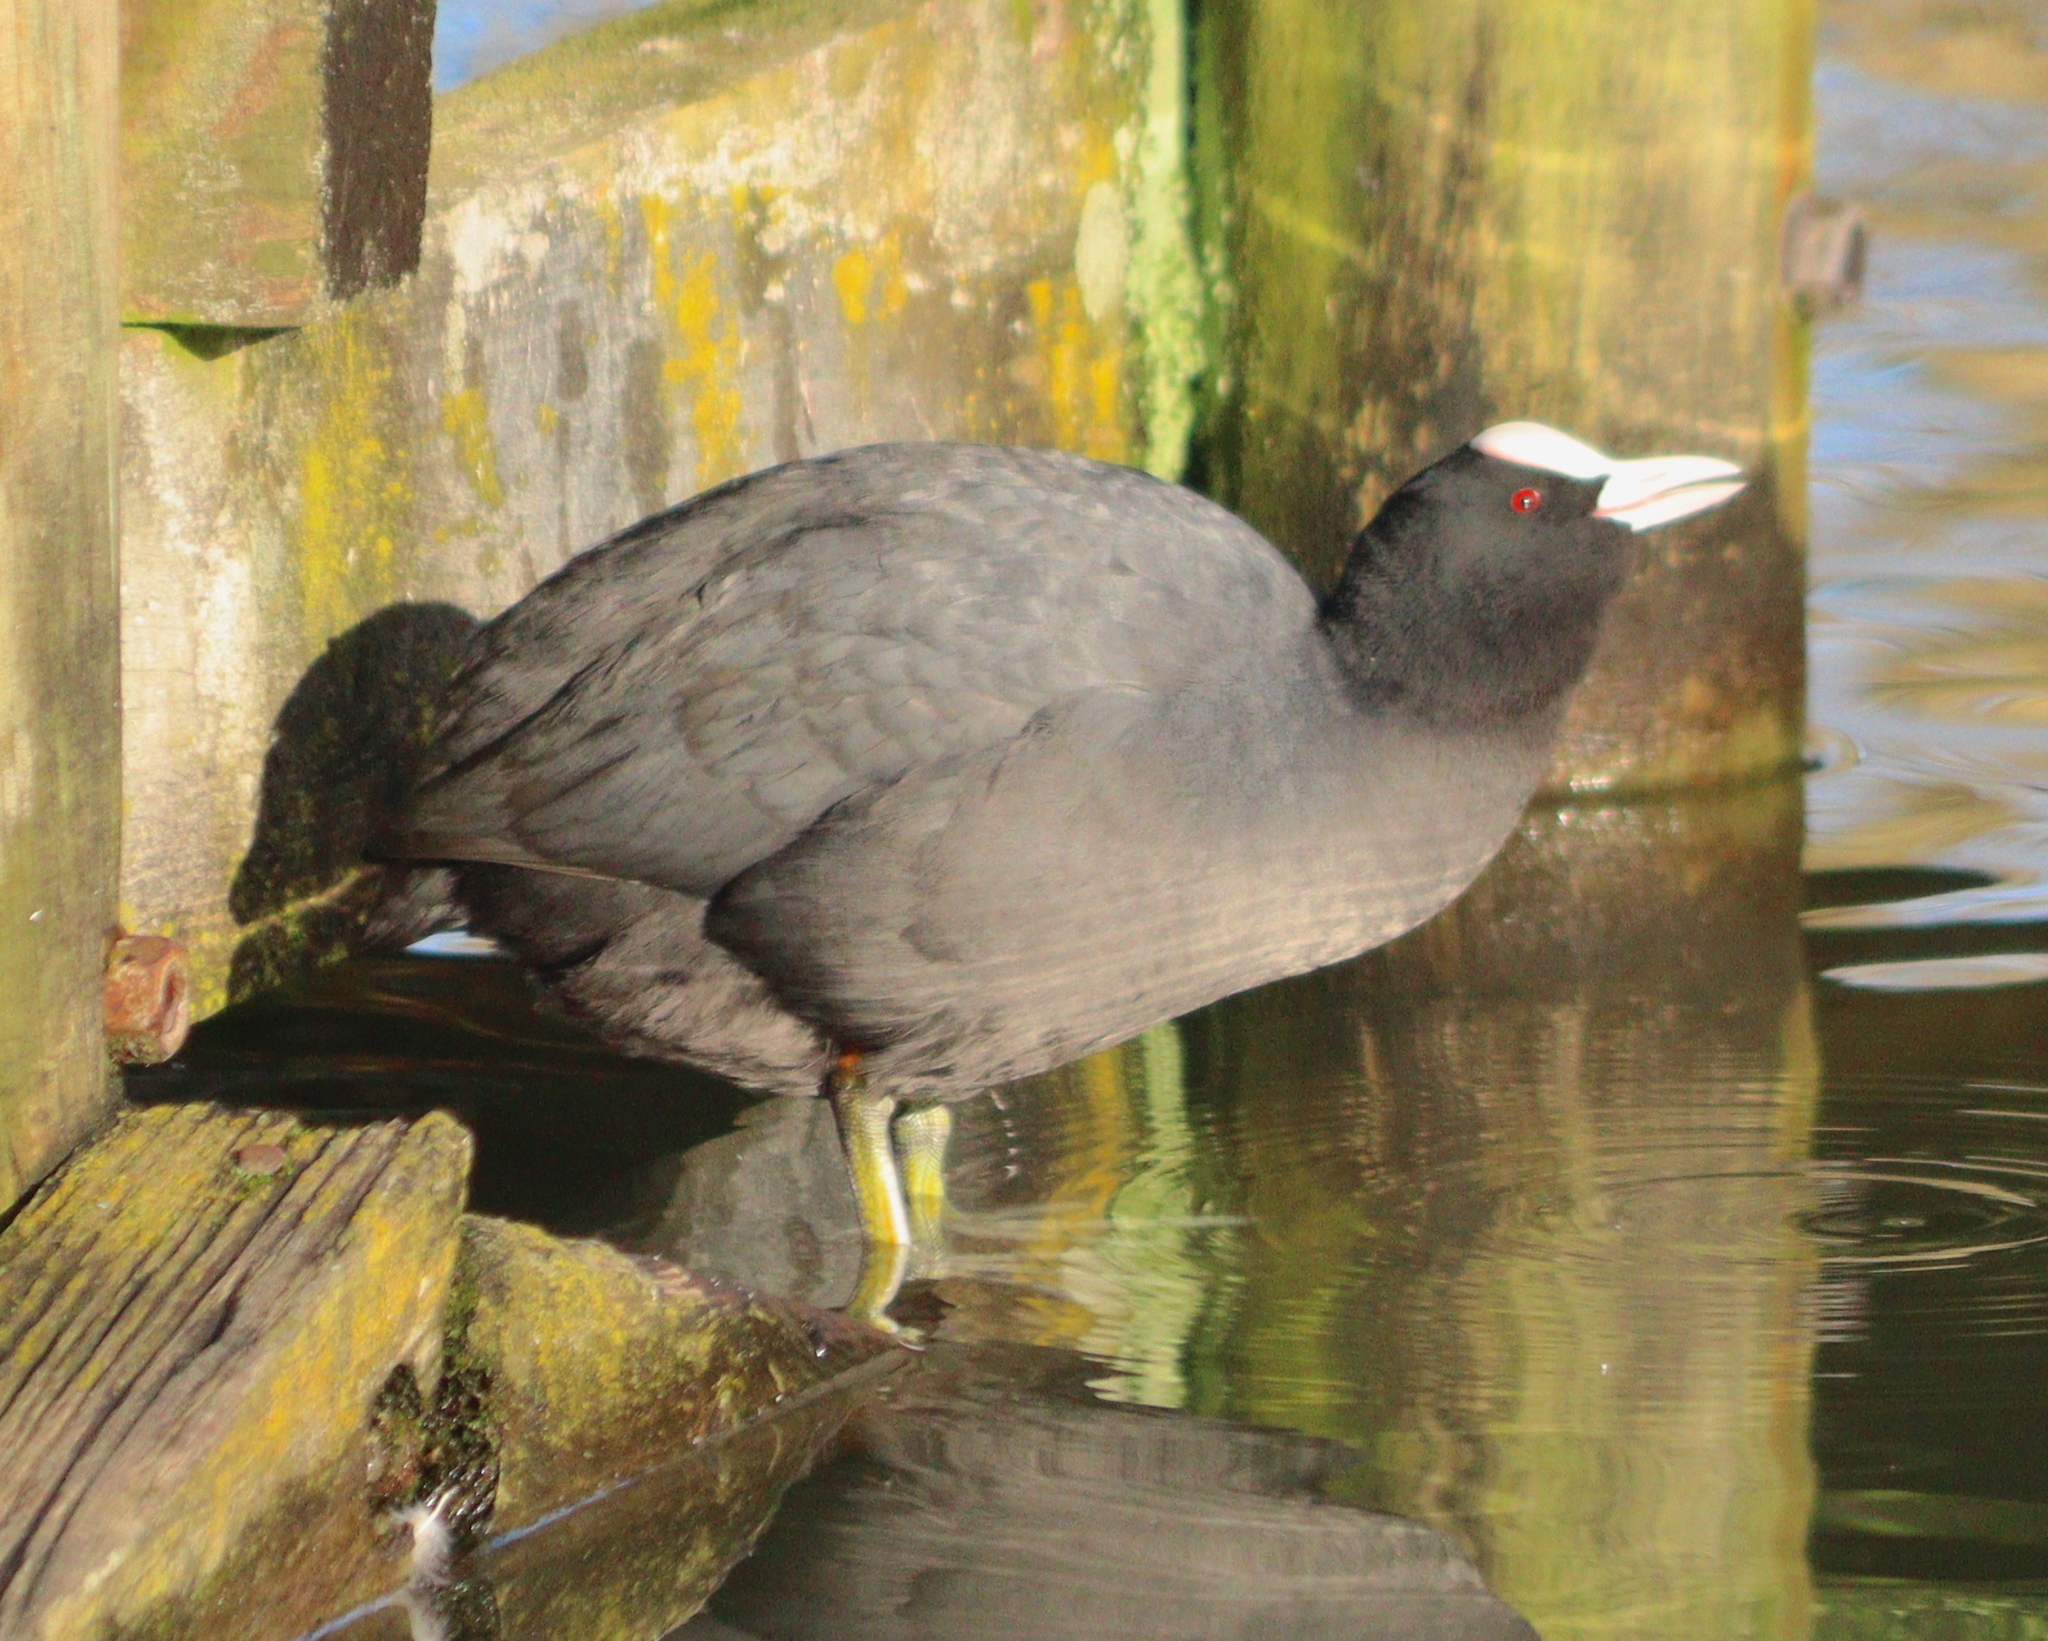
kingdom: Animalia
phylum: Chordata
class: Aves
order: Gruiformes
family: Rallidae
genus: Fulica
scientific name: Fulica atra
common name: Eurasian coot
